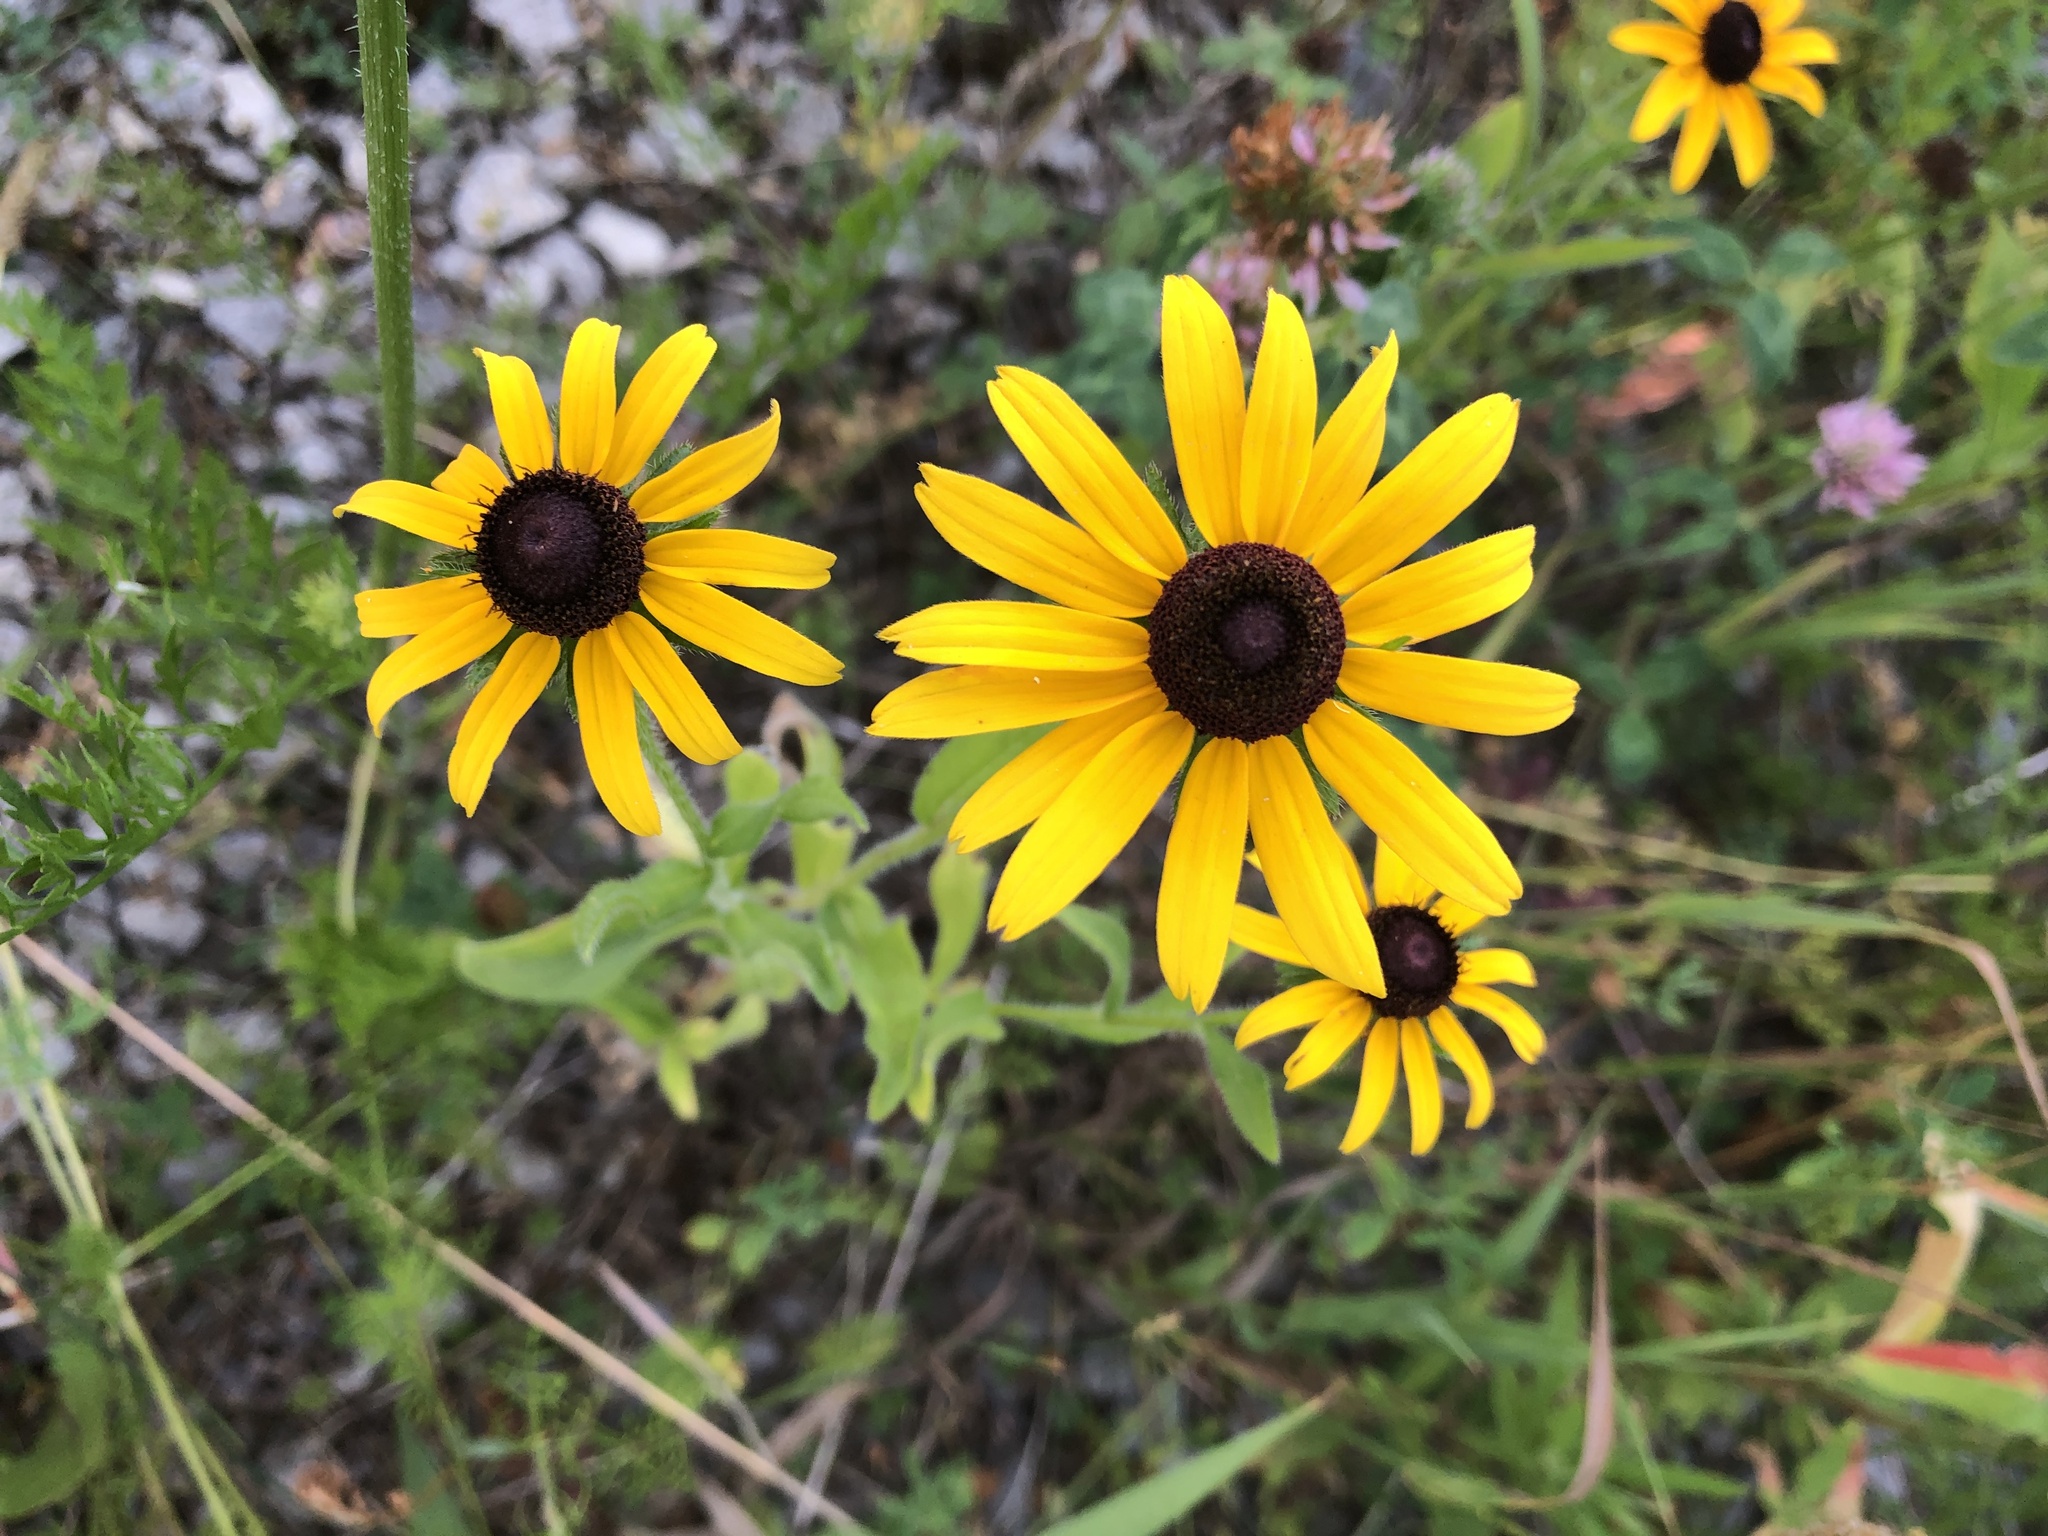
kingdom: Plantae
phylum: Tracheophyta
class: Magnoliopsida
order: Asterales
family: Asteraceae
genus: Rudbeckia
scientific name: Rudbeckia hirta
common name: Black-eyed-susan
